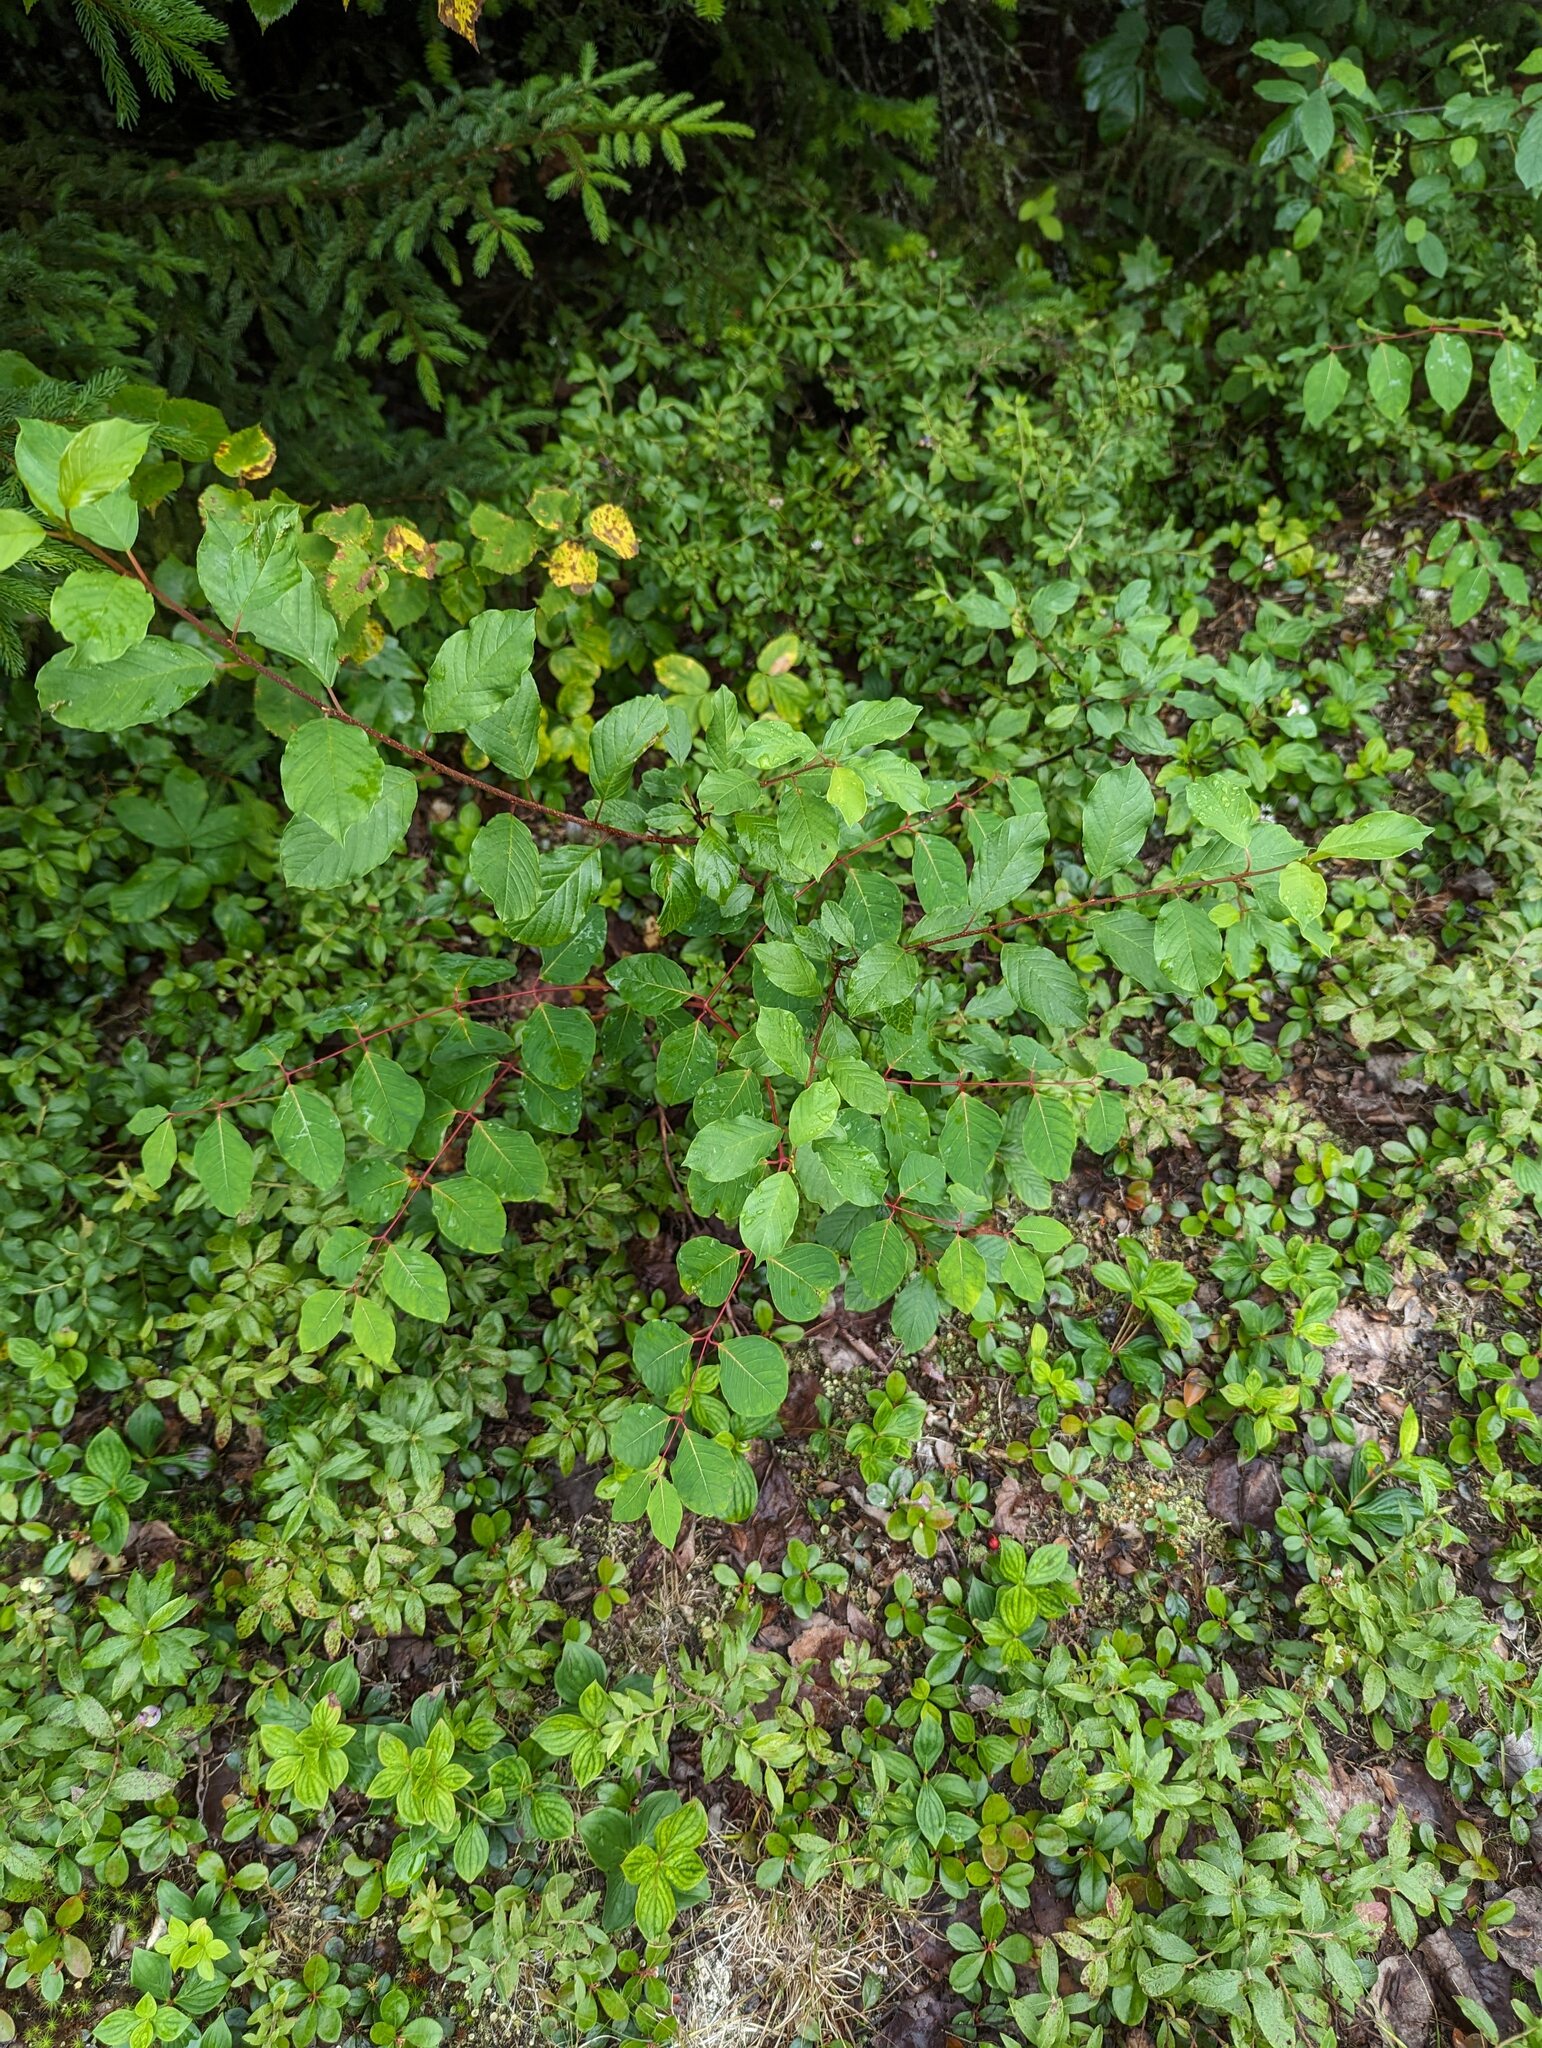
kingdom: Plantae
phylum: Tracheophyta
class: Magnoliopsida
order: Gentianales
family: Apocynaceae
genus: Apocynum
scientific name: Apocynum androsaemifolium
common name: Spreading dogbane
